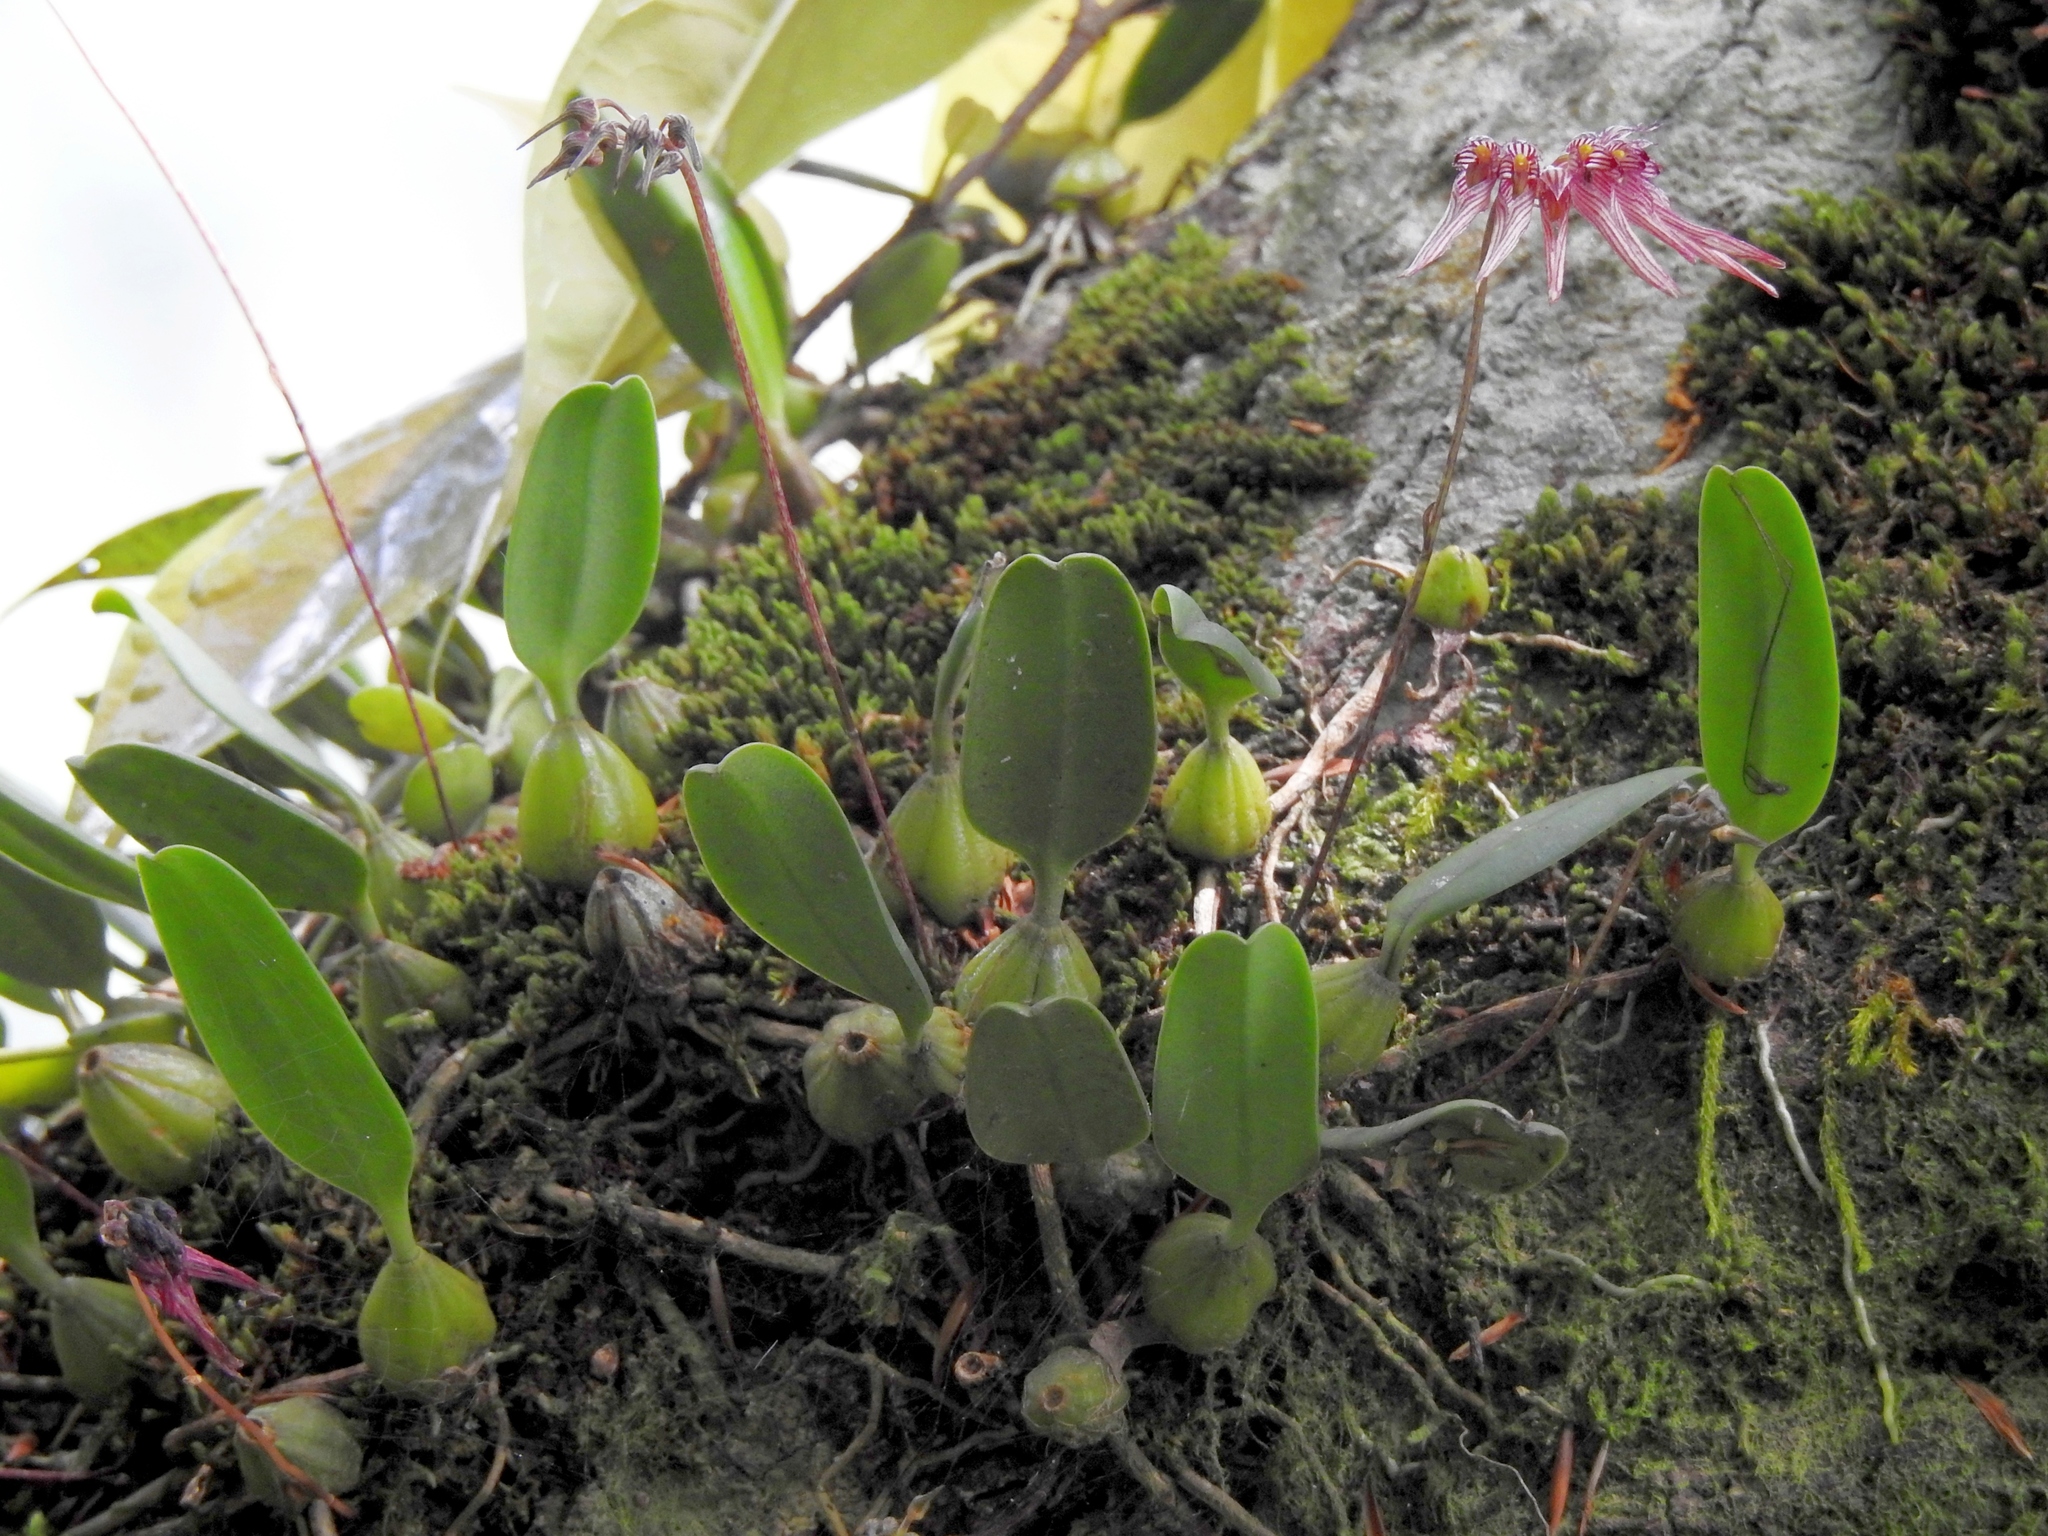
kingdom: Plantae
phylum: Tracheophyta
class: Liliopsida
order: Asparagales
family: Orchidaceae
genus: Bulbophyllum
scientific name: Bulbophyllum melanoglossum
